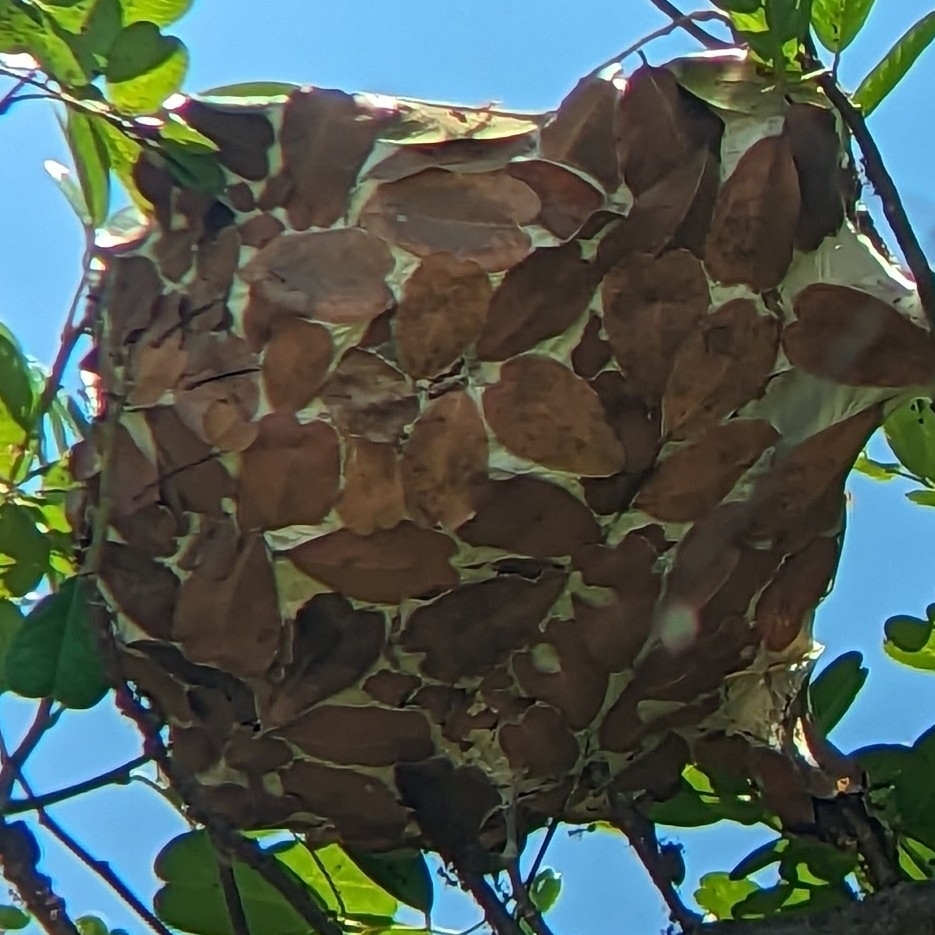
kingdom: Animalia
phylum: Arthropoda
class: Insecta
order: Hymenoptera
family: Formicidae
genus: Oecophylla
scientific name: Oecophylla smaragdina
